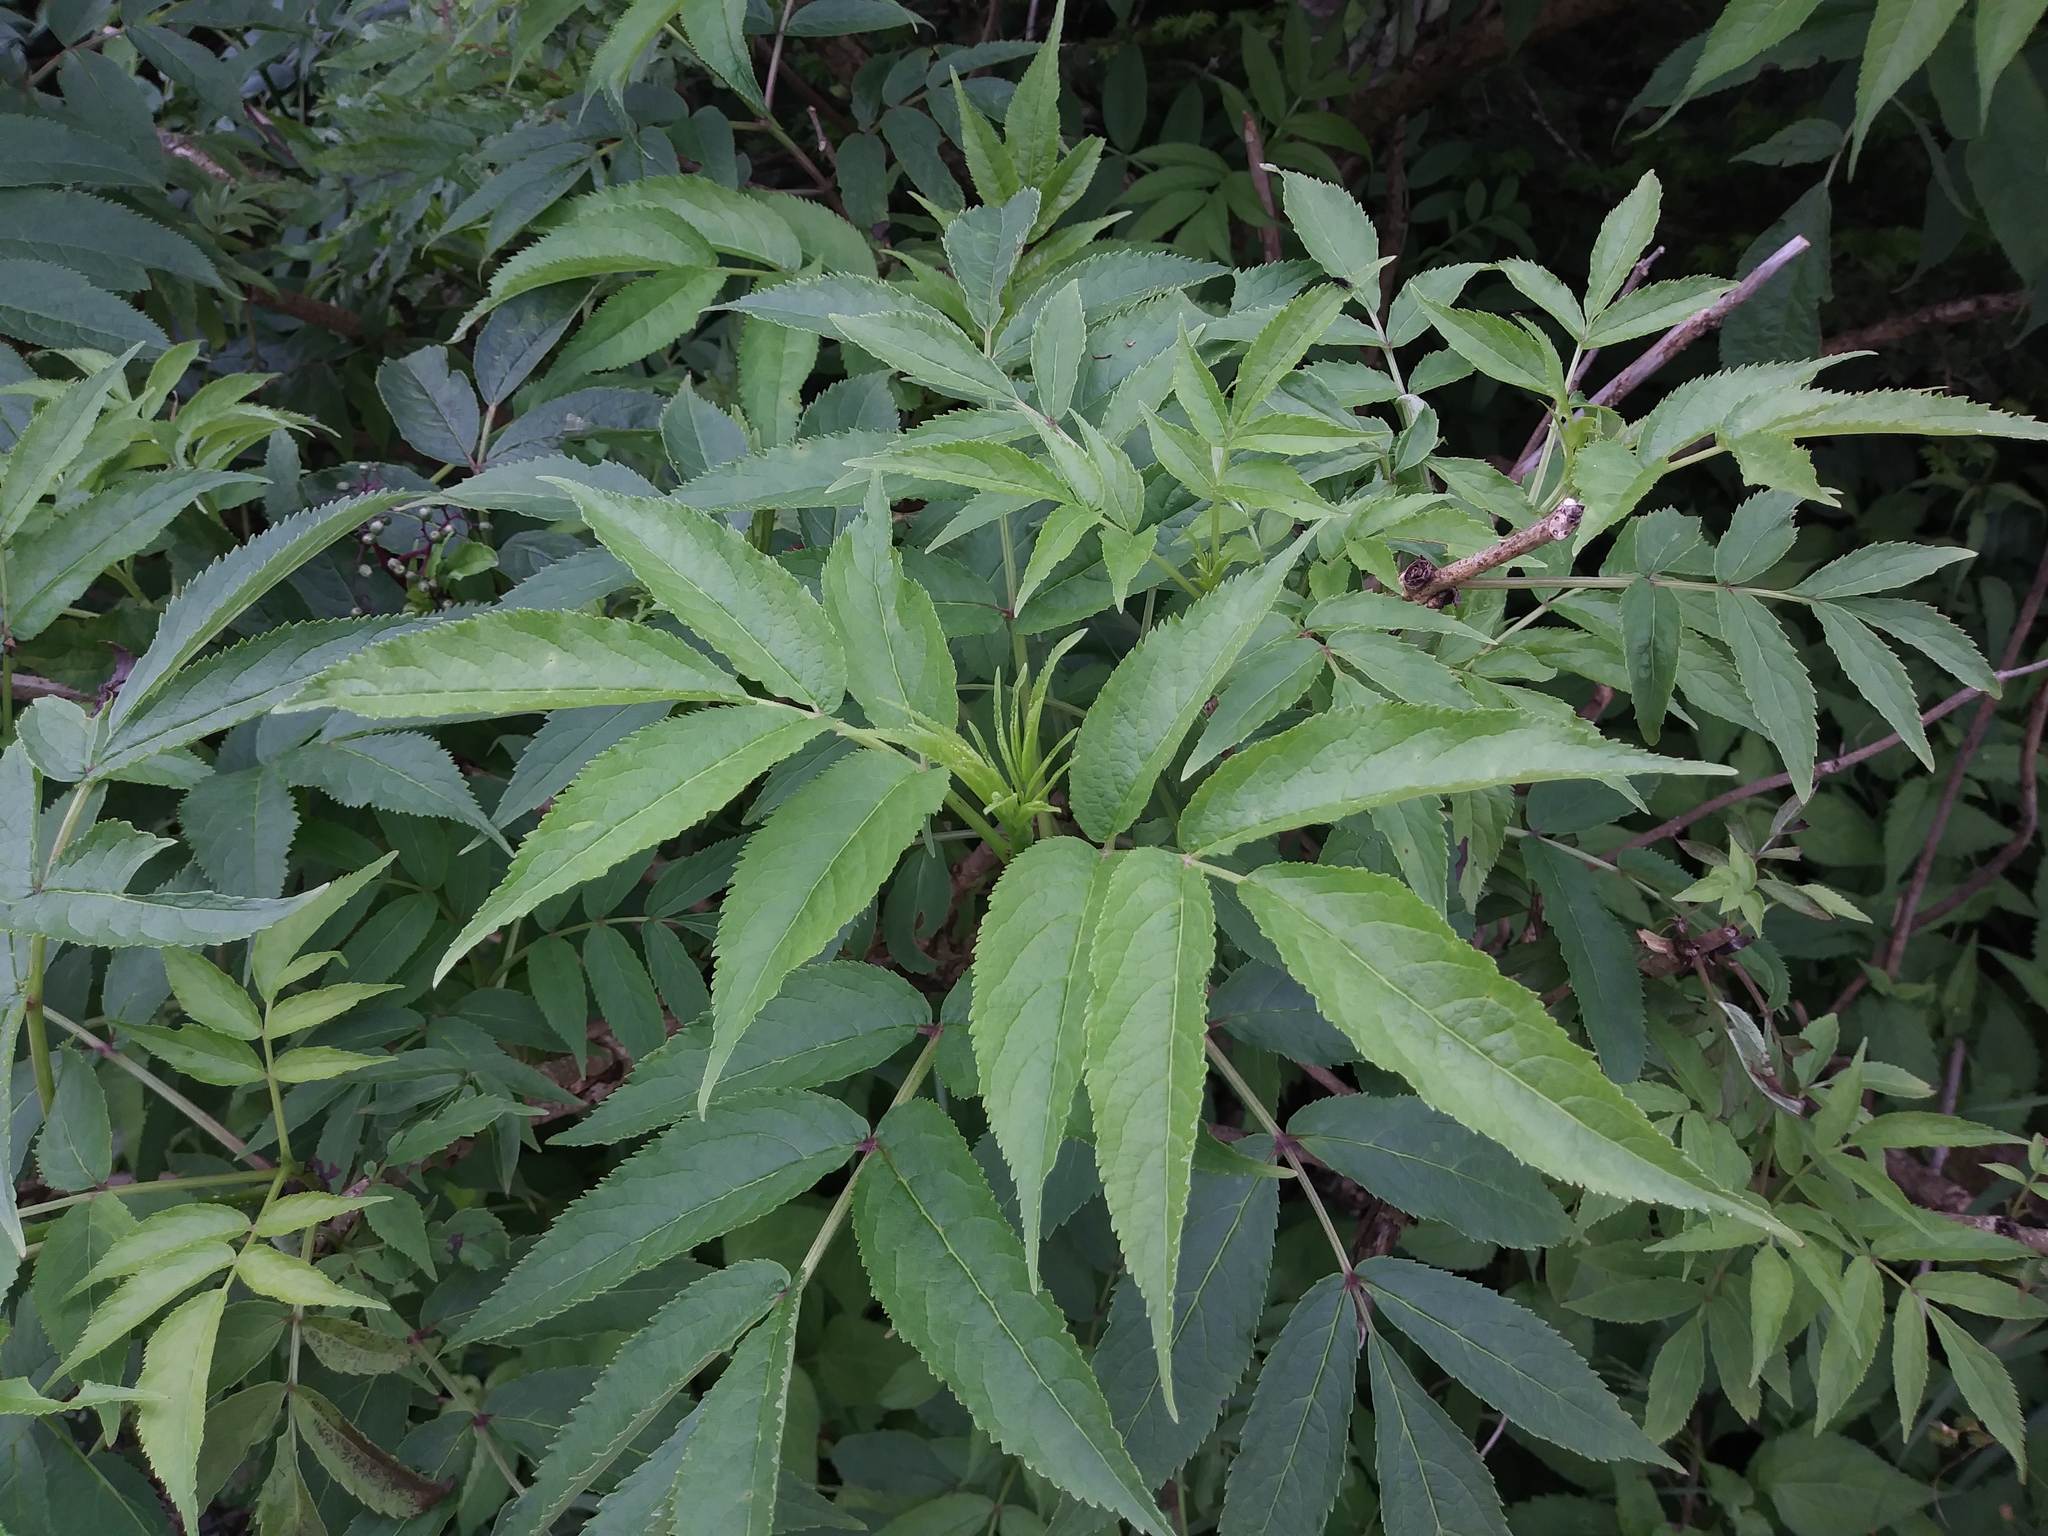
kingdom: Plantae
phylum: Tracheophyta
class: Magnoliopsida
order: Dipsacales
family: Viburnaceae
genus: Sambucus
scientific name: Sambucus canadensis
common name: American elder
